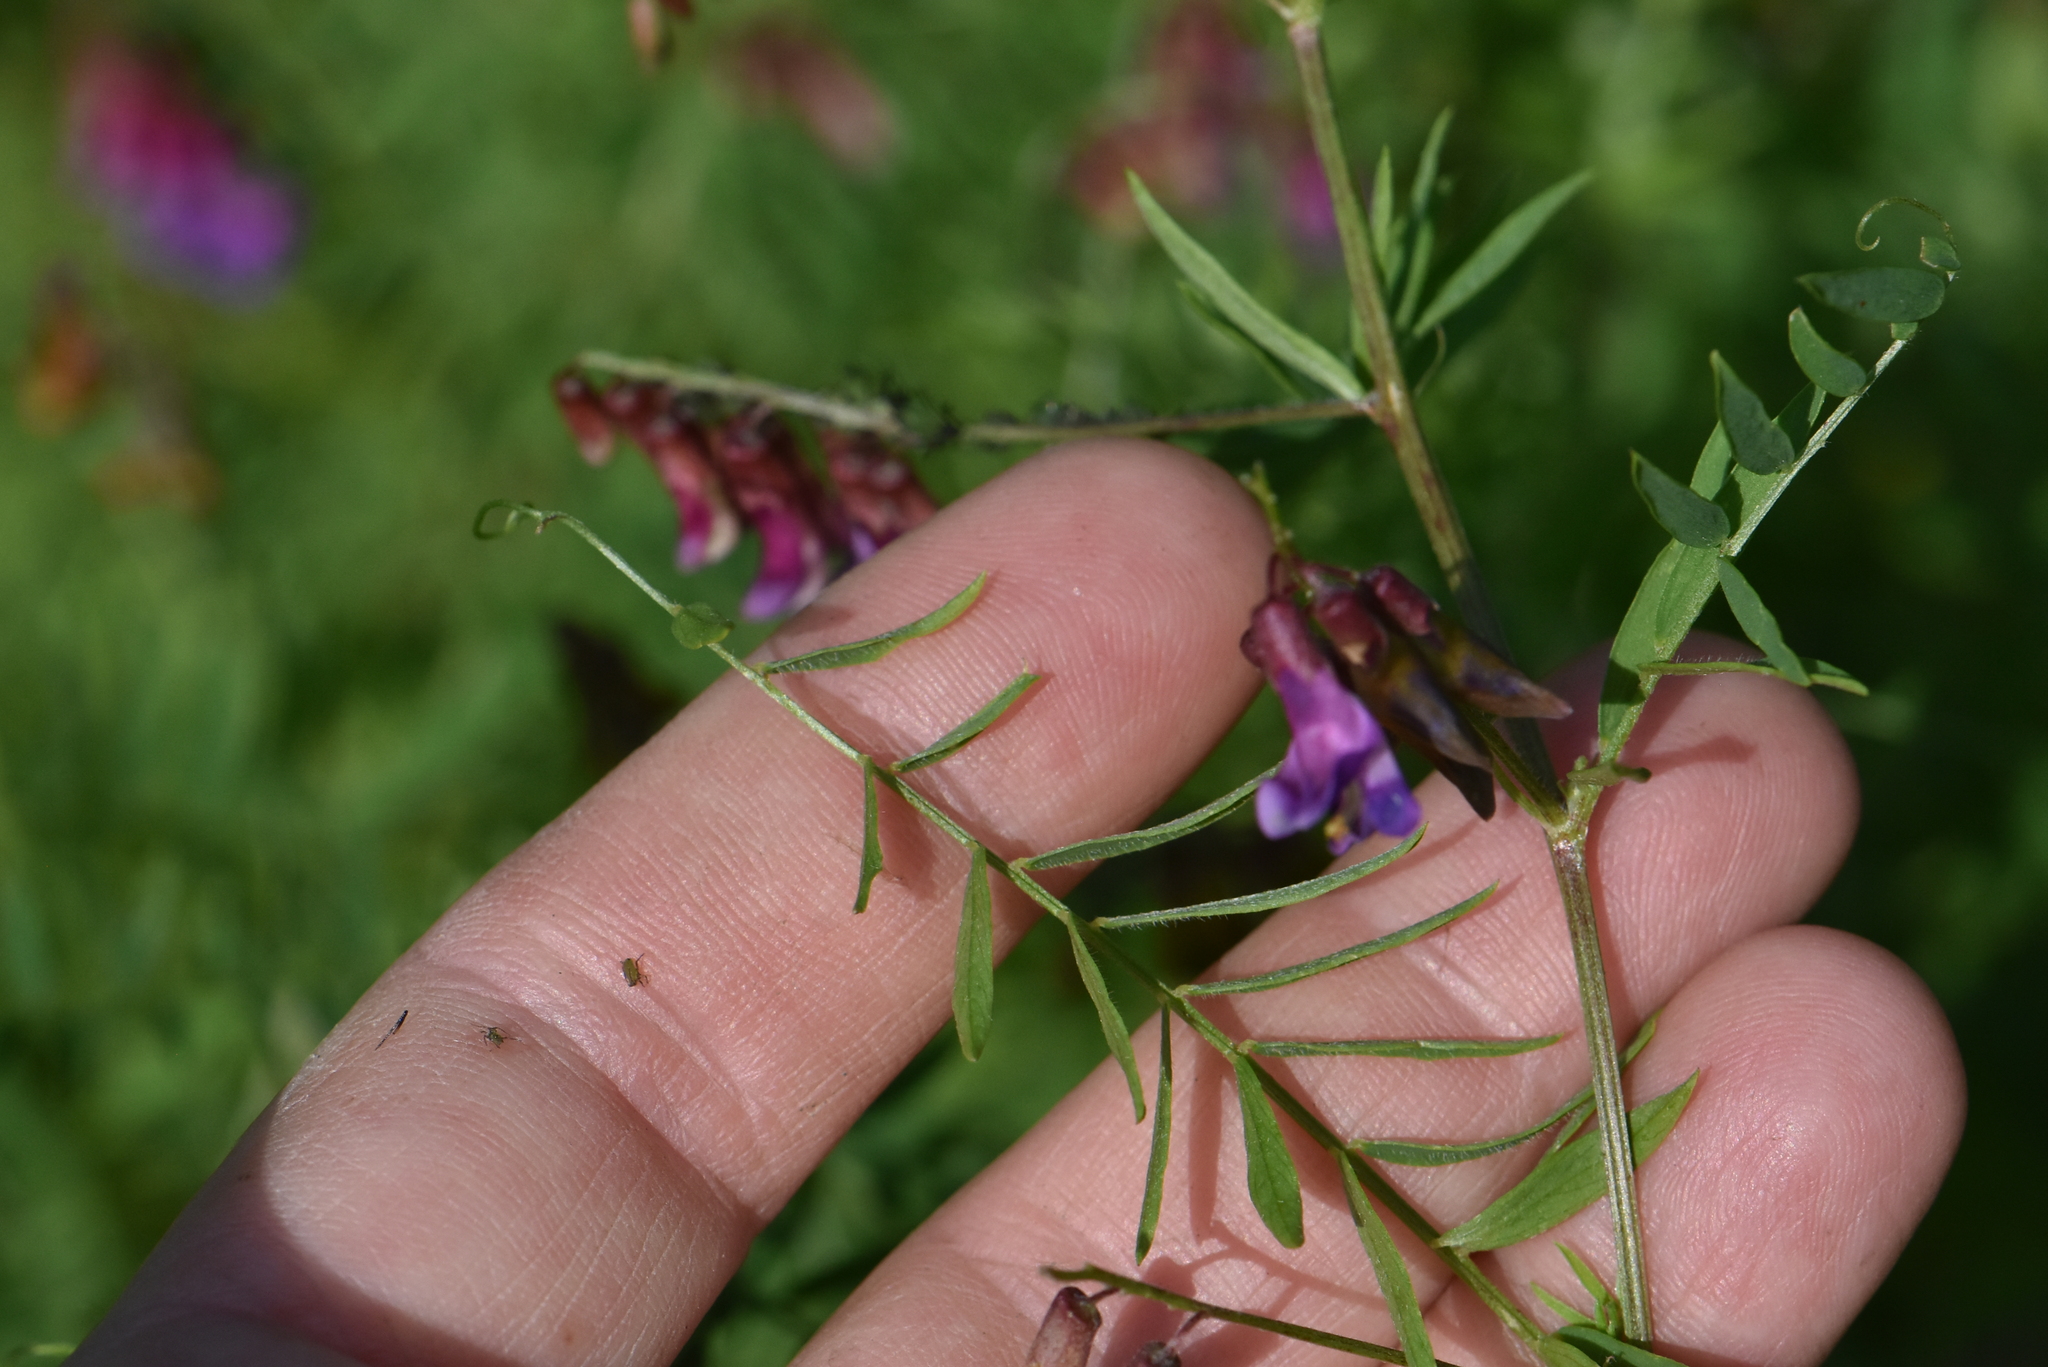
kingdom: Plantae
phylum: Tracheophyta
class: Magnoliopsida
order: Fabales
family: Fabaceae
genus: Vicia
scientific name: Vicia megalotropis
